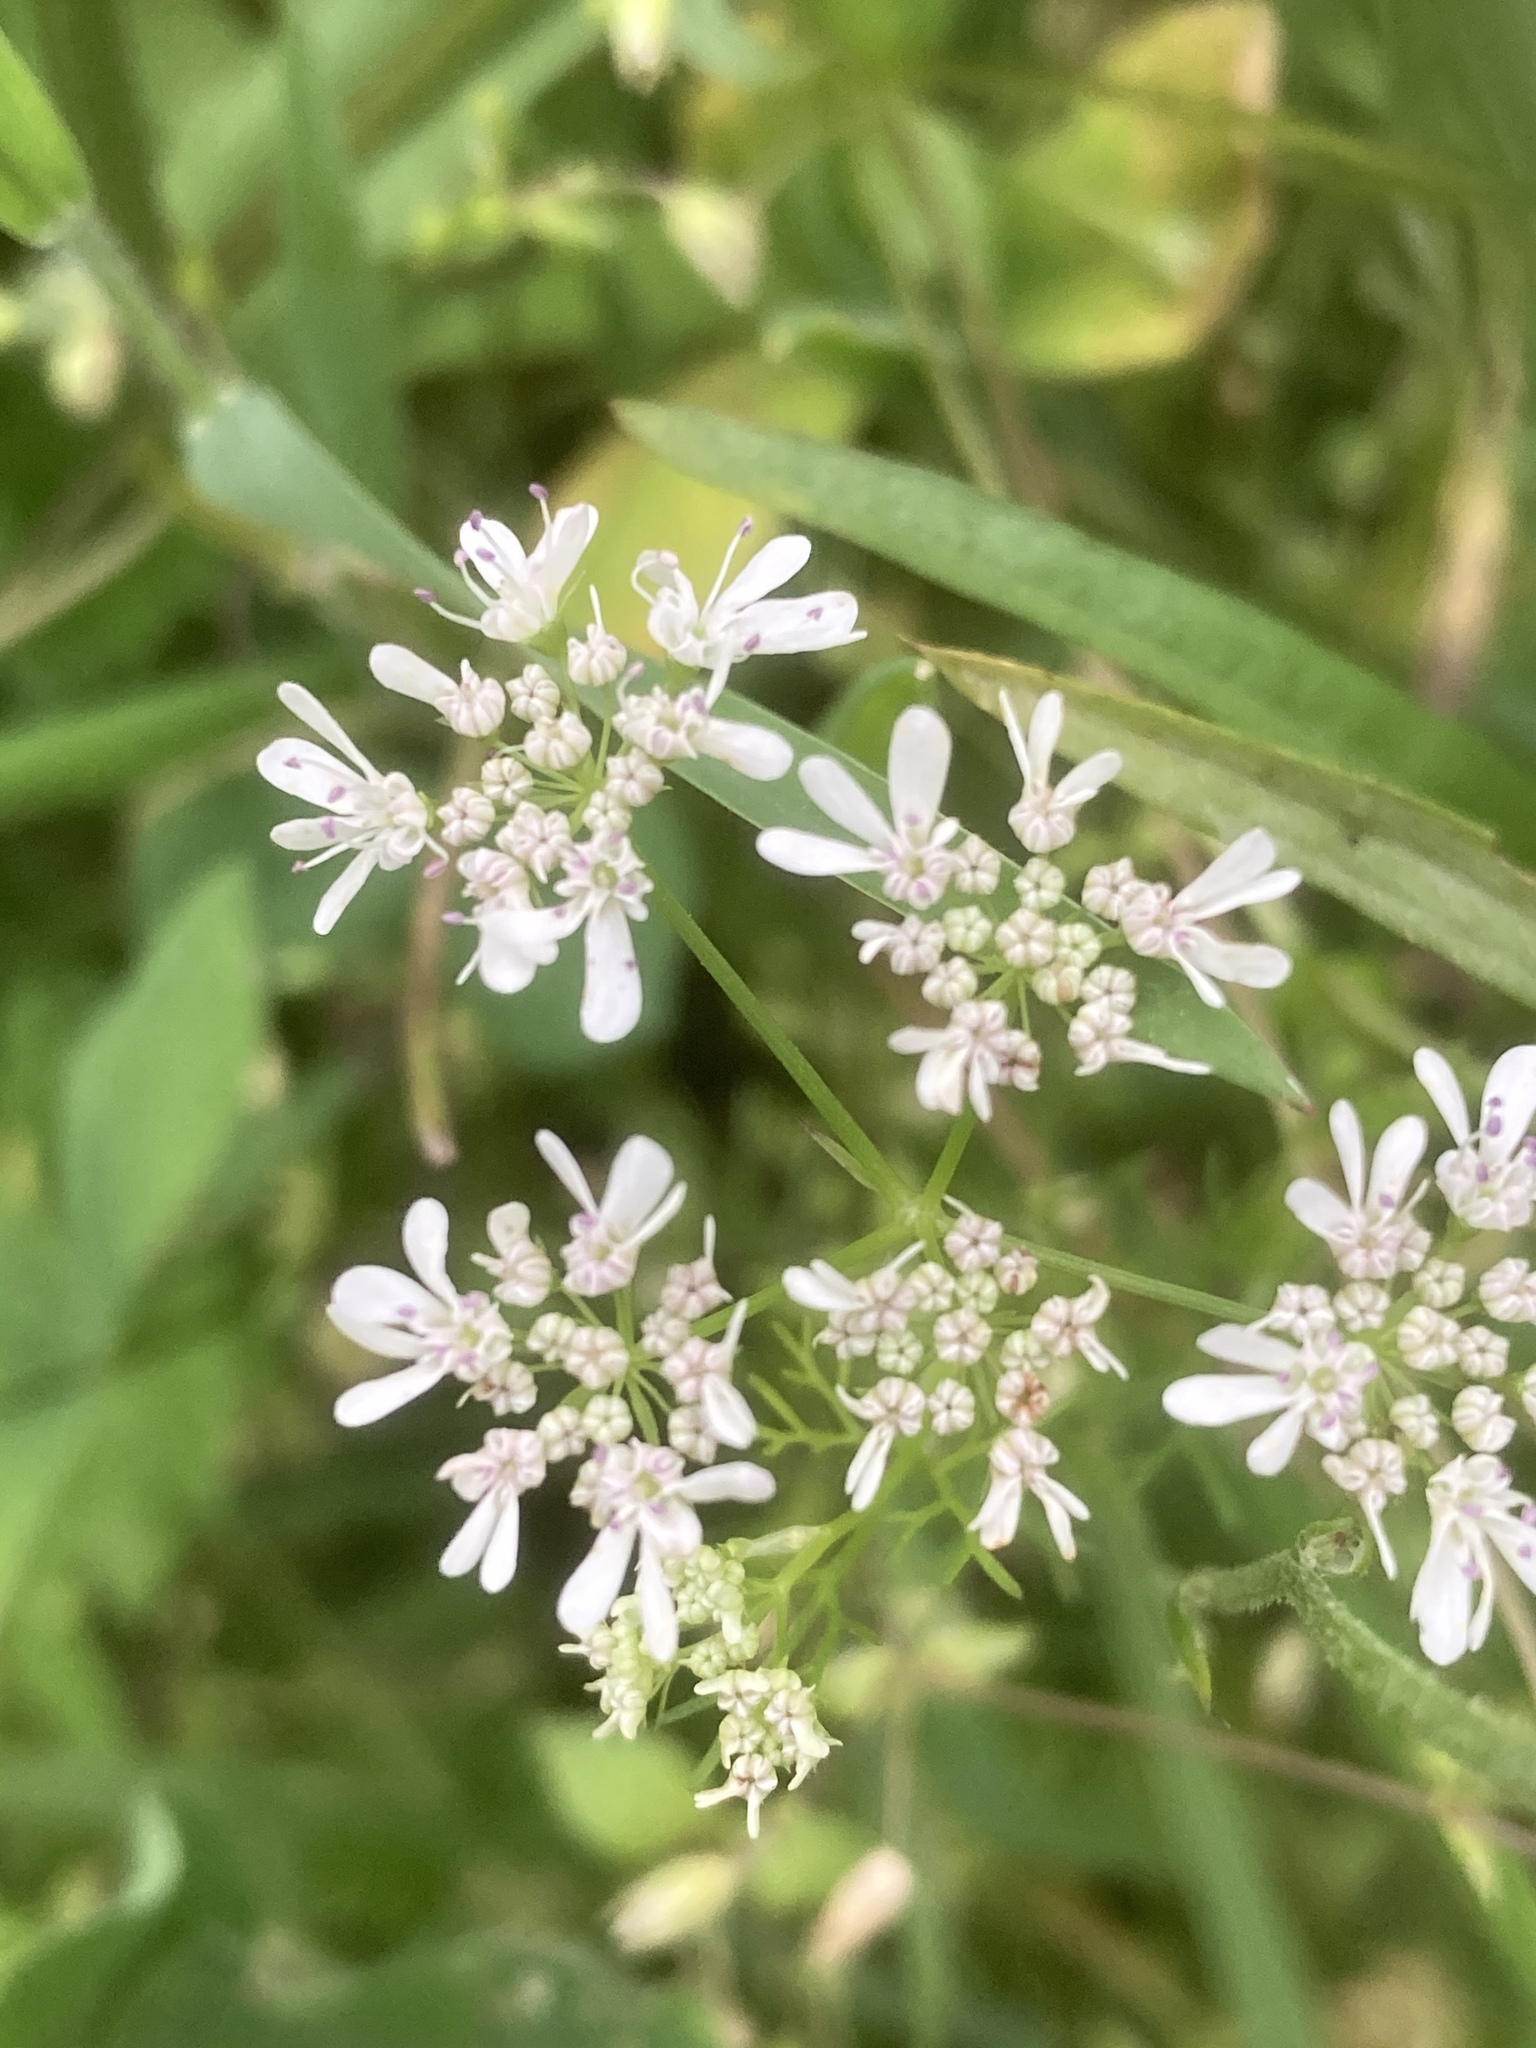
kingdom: Plantae
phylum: Tracheophyta
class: Magnoliopsida
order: Apiales
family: Apiaceae
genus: Coriandrum
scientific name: Coriandrum sativum
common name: Coriander
